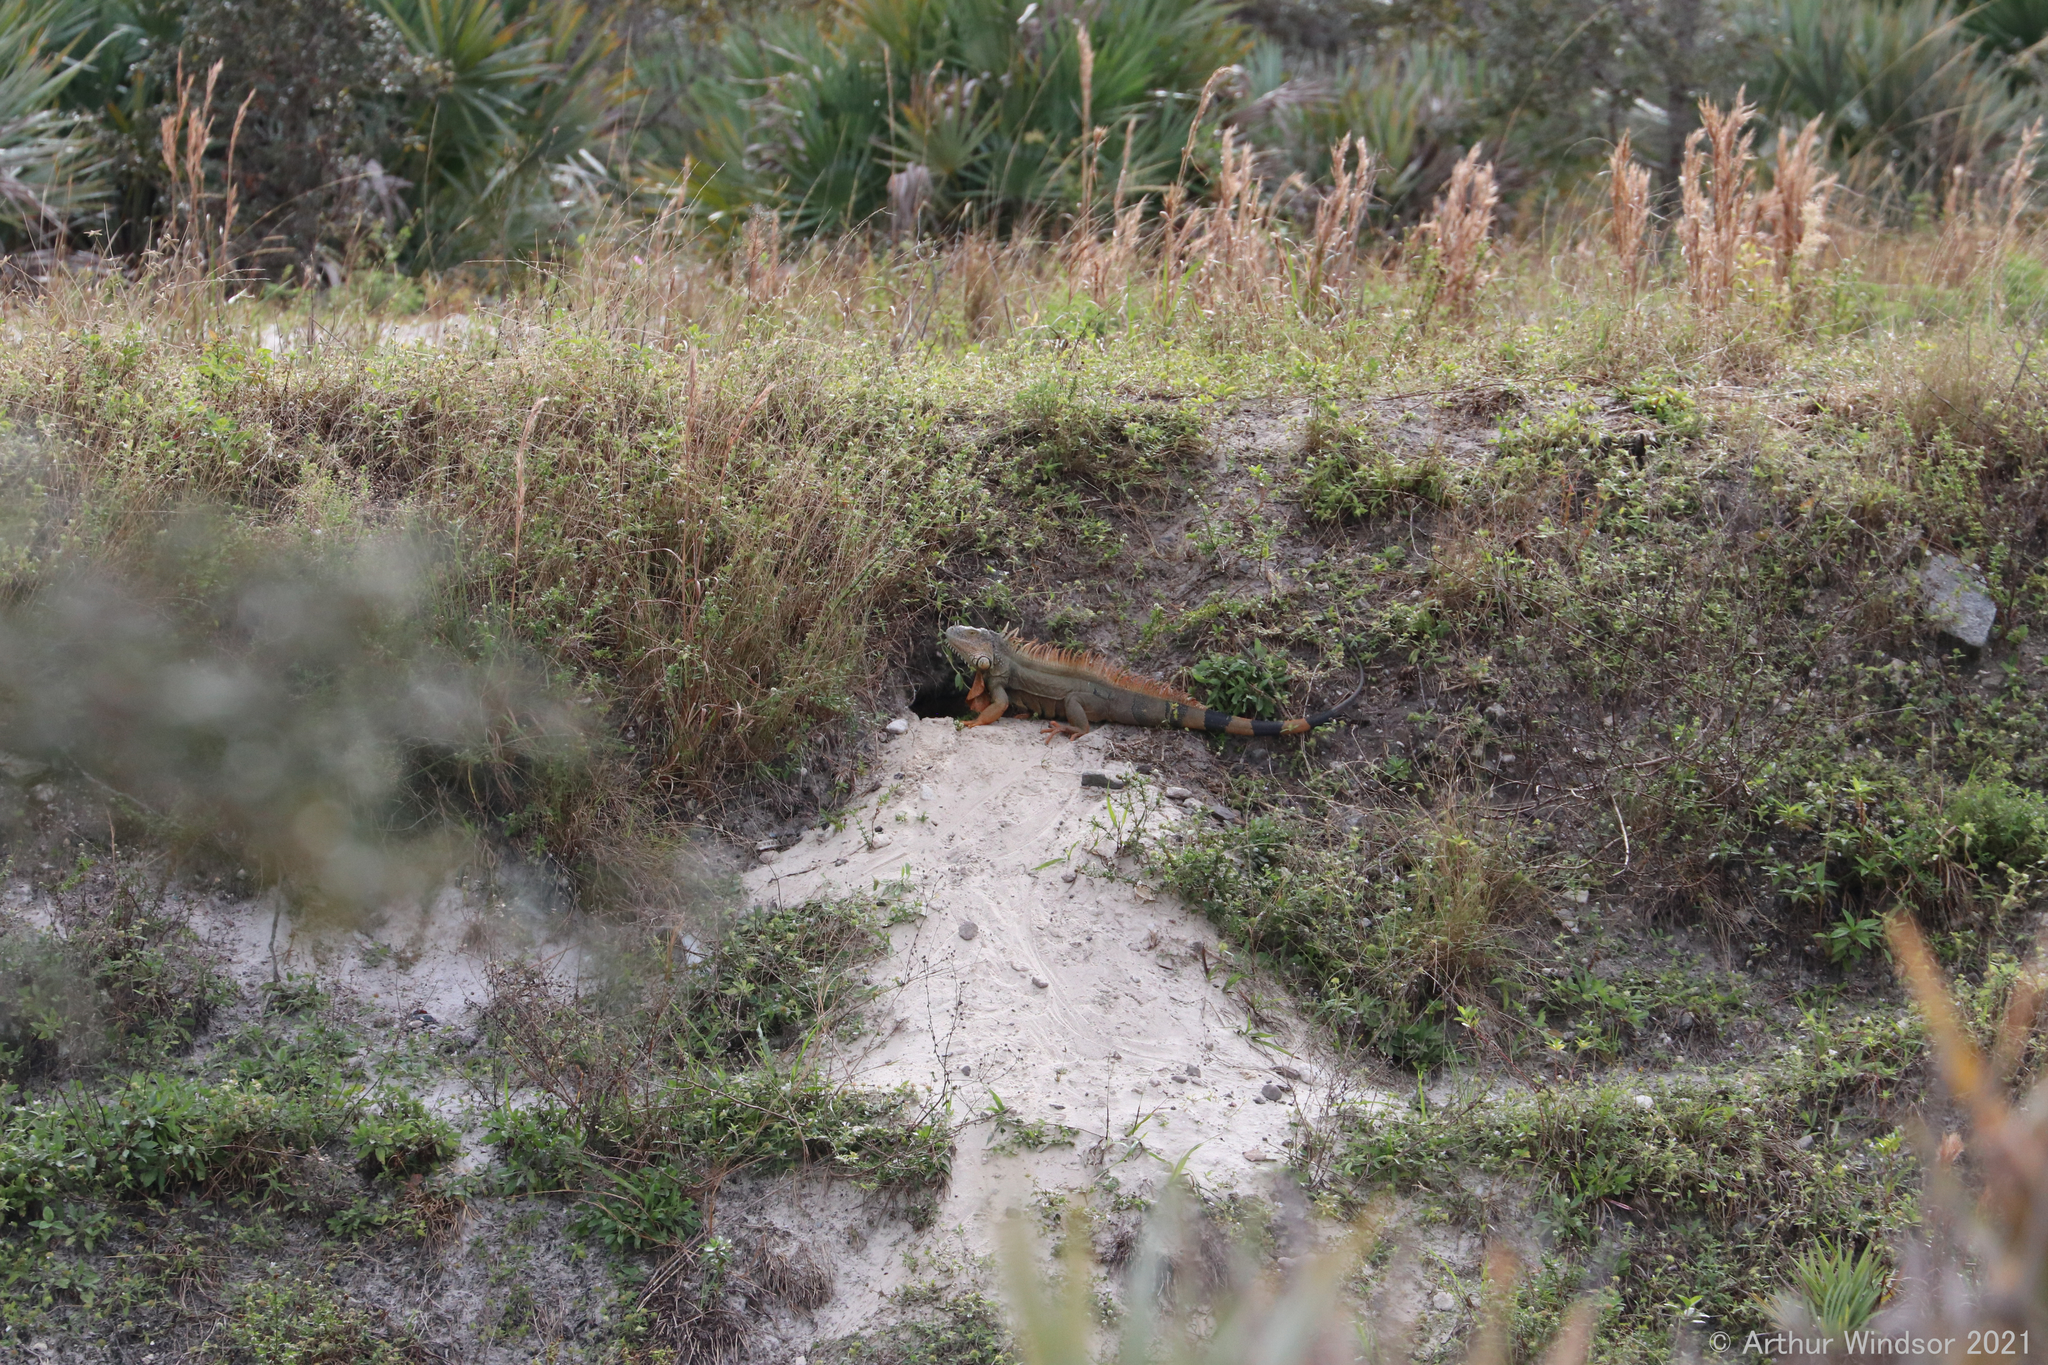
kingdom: Animalia
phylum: Chordata
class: Squamata
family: Iguanidae
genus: Iguana
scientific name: Iguana iguana
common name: Green iguana
